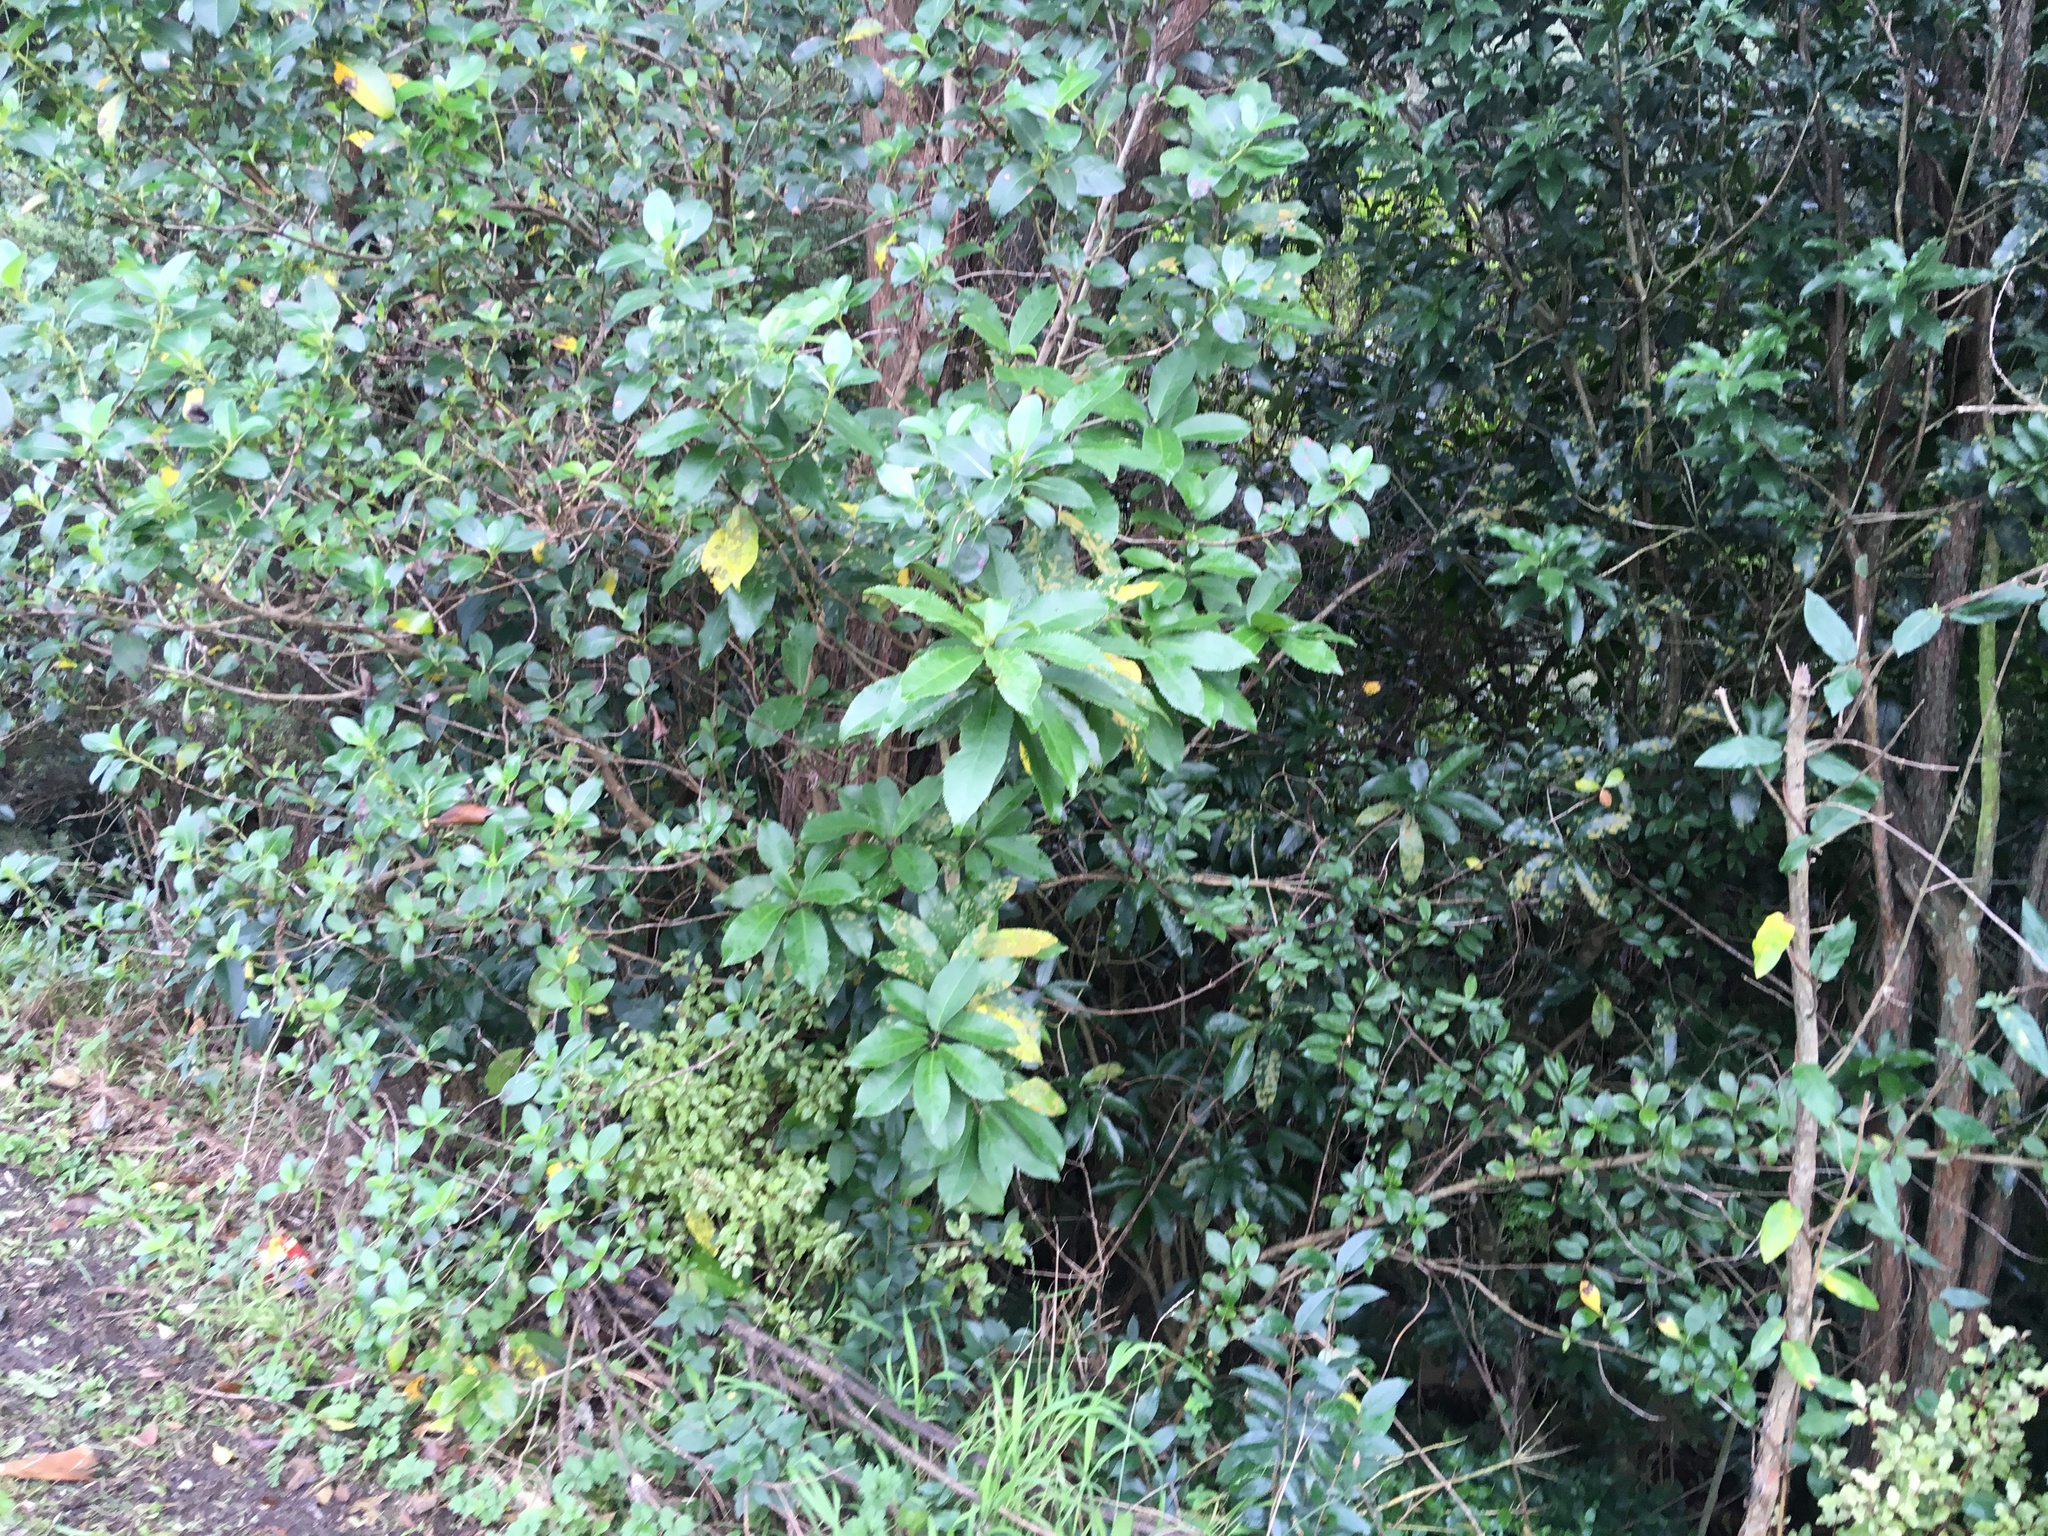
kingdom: Plantae
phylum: Tracheophyta
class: Magnoliopsida
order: Malpighiales
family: Violaceae
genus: Melicytus
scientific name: Melicytus ramiflorus
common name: Mahoe
